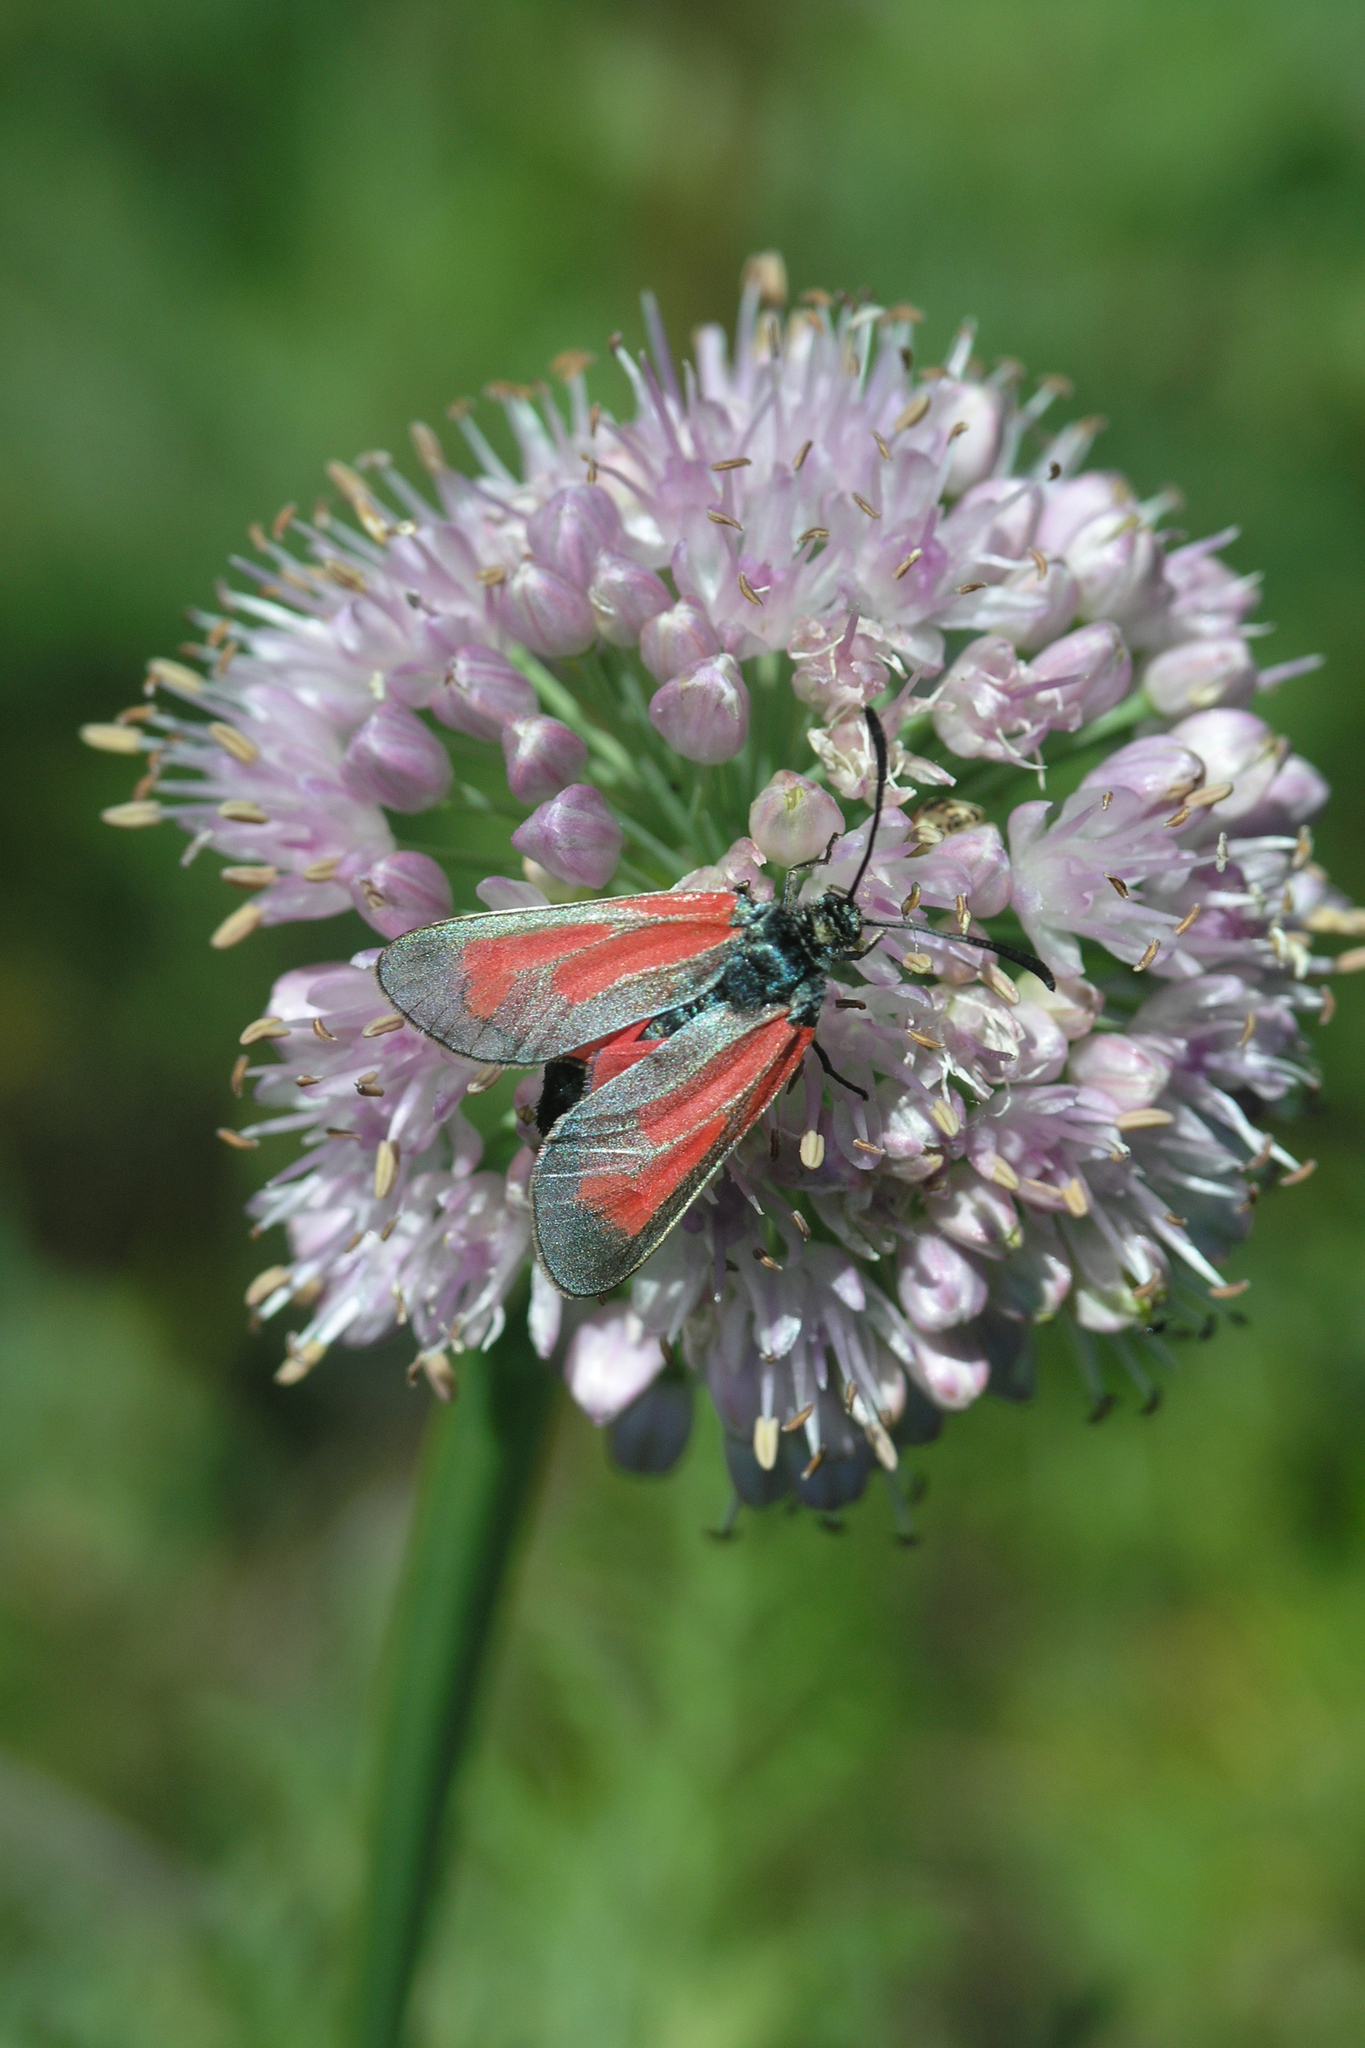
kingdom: Plantae
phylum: Tracheophyta
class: Liliopsida
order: Asparagales
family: Amaryllidaceae
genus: Allium
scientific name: Allium nutans
